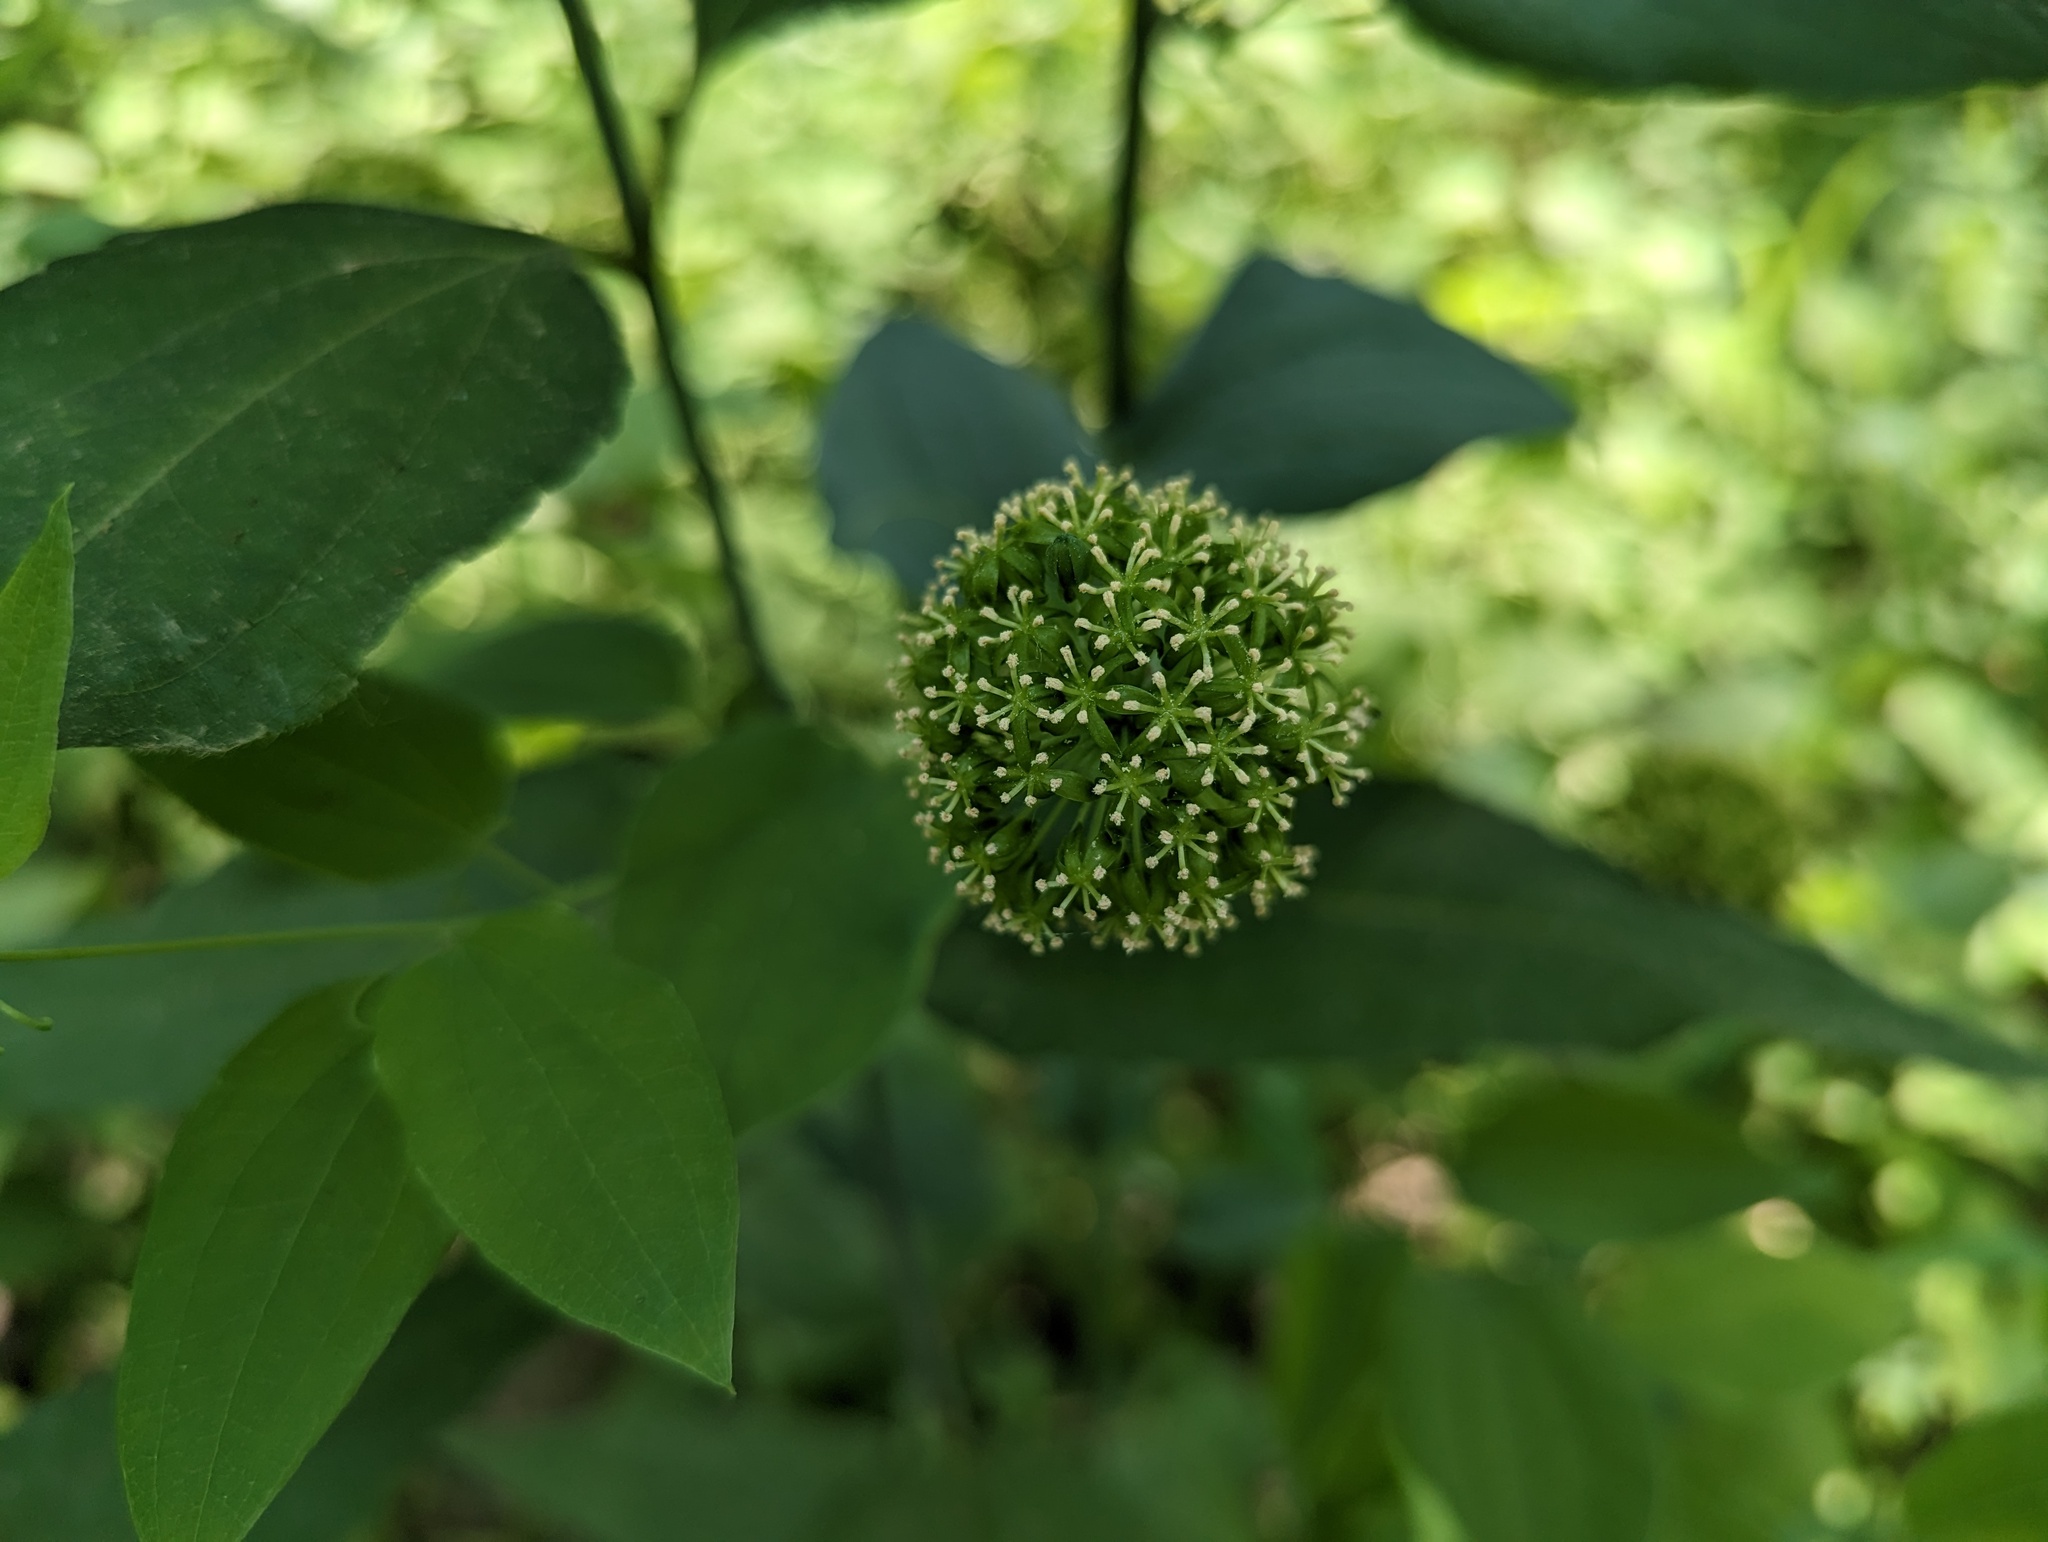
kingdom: Plantae
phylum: Tracheophyta
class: Liliopsida
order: Liliales
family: Smilacaceae
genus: Smilax
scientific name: Smilax lasioneura
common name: Blue ridge carrionflower
